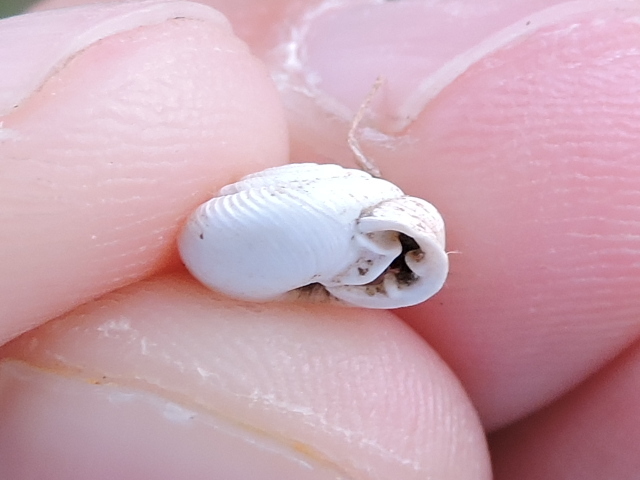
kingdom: Animalia
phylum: Mollusca
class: Gastropoda
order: Stylommatophora
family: Polygyridae
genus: Linisa
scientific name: Linisa texasiana
